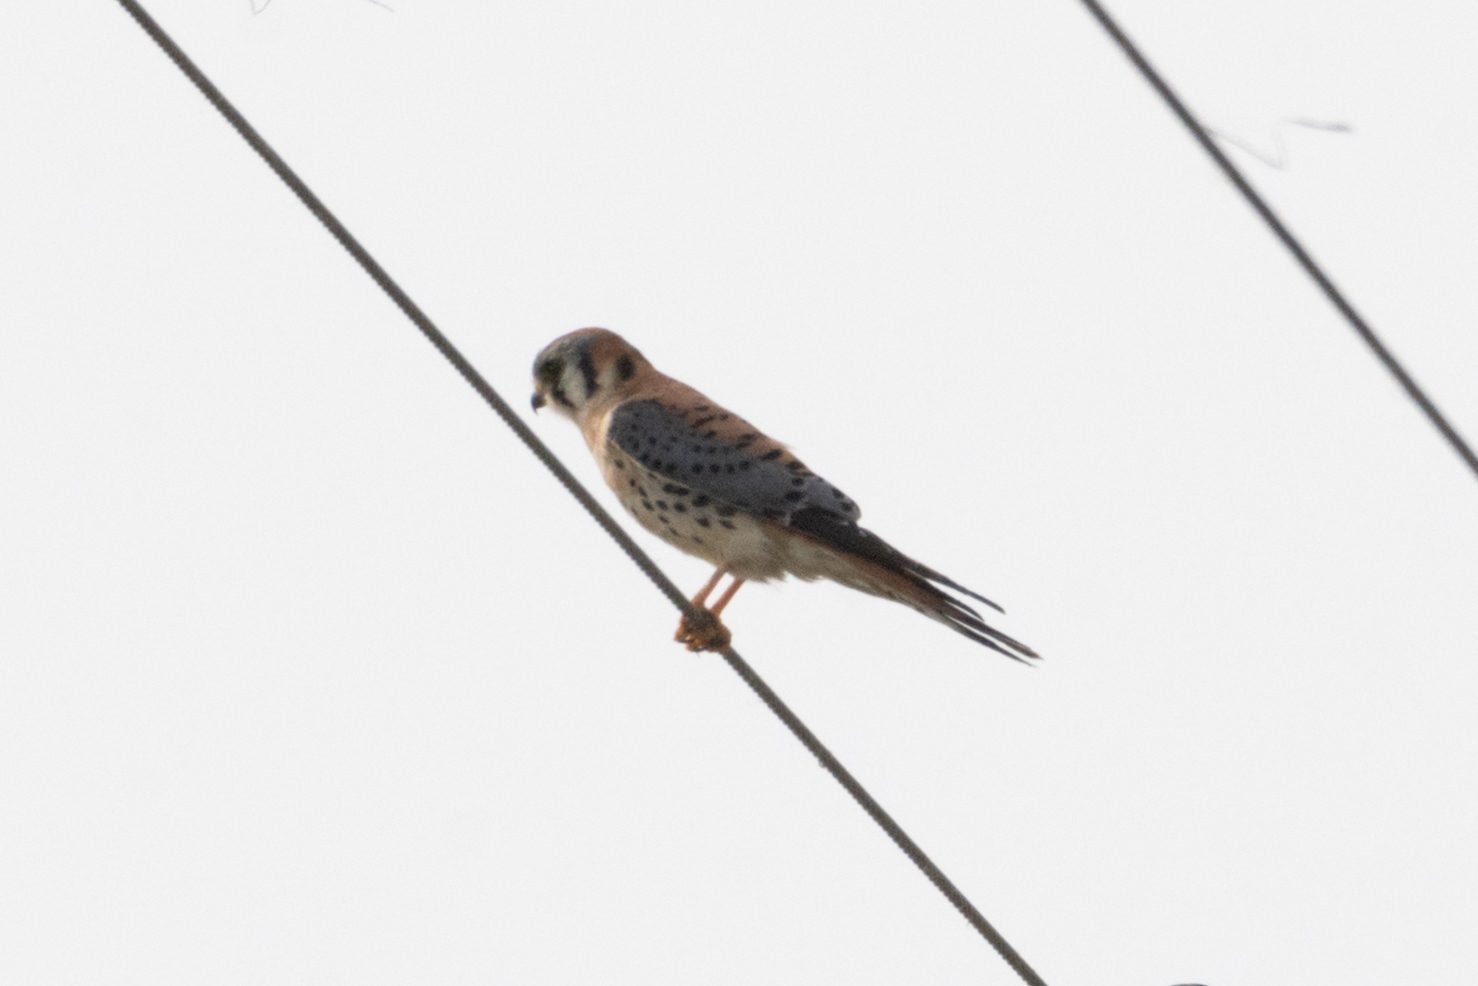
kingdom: Animalia
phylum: Chordata
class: Aves
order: Falconiformes
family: Falconidae
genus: Falco
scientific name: Falco sparverius
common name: American kestrel
